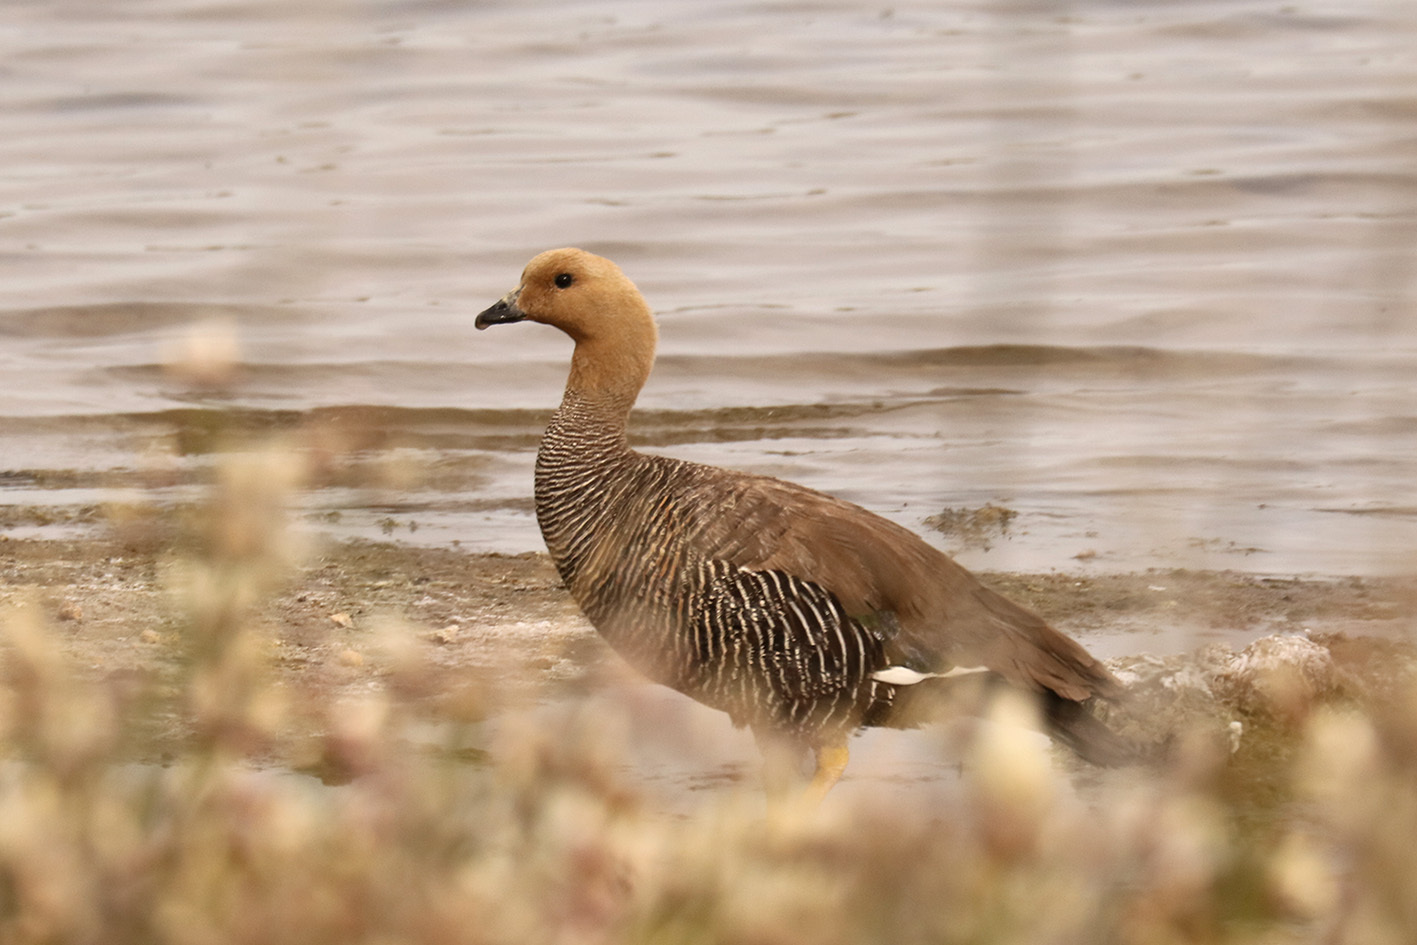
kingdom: Animalia
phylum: Chordata
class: Aves
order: Anseriformes
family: Anatidae
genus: Chloephaga
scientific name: Chloephaga picta
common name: Upland goose
